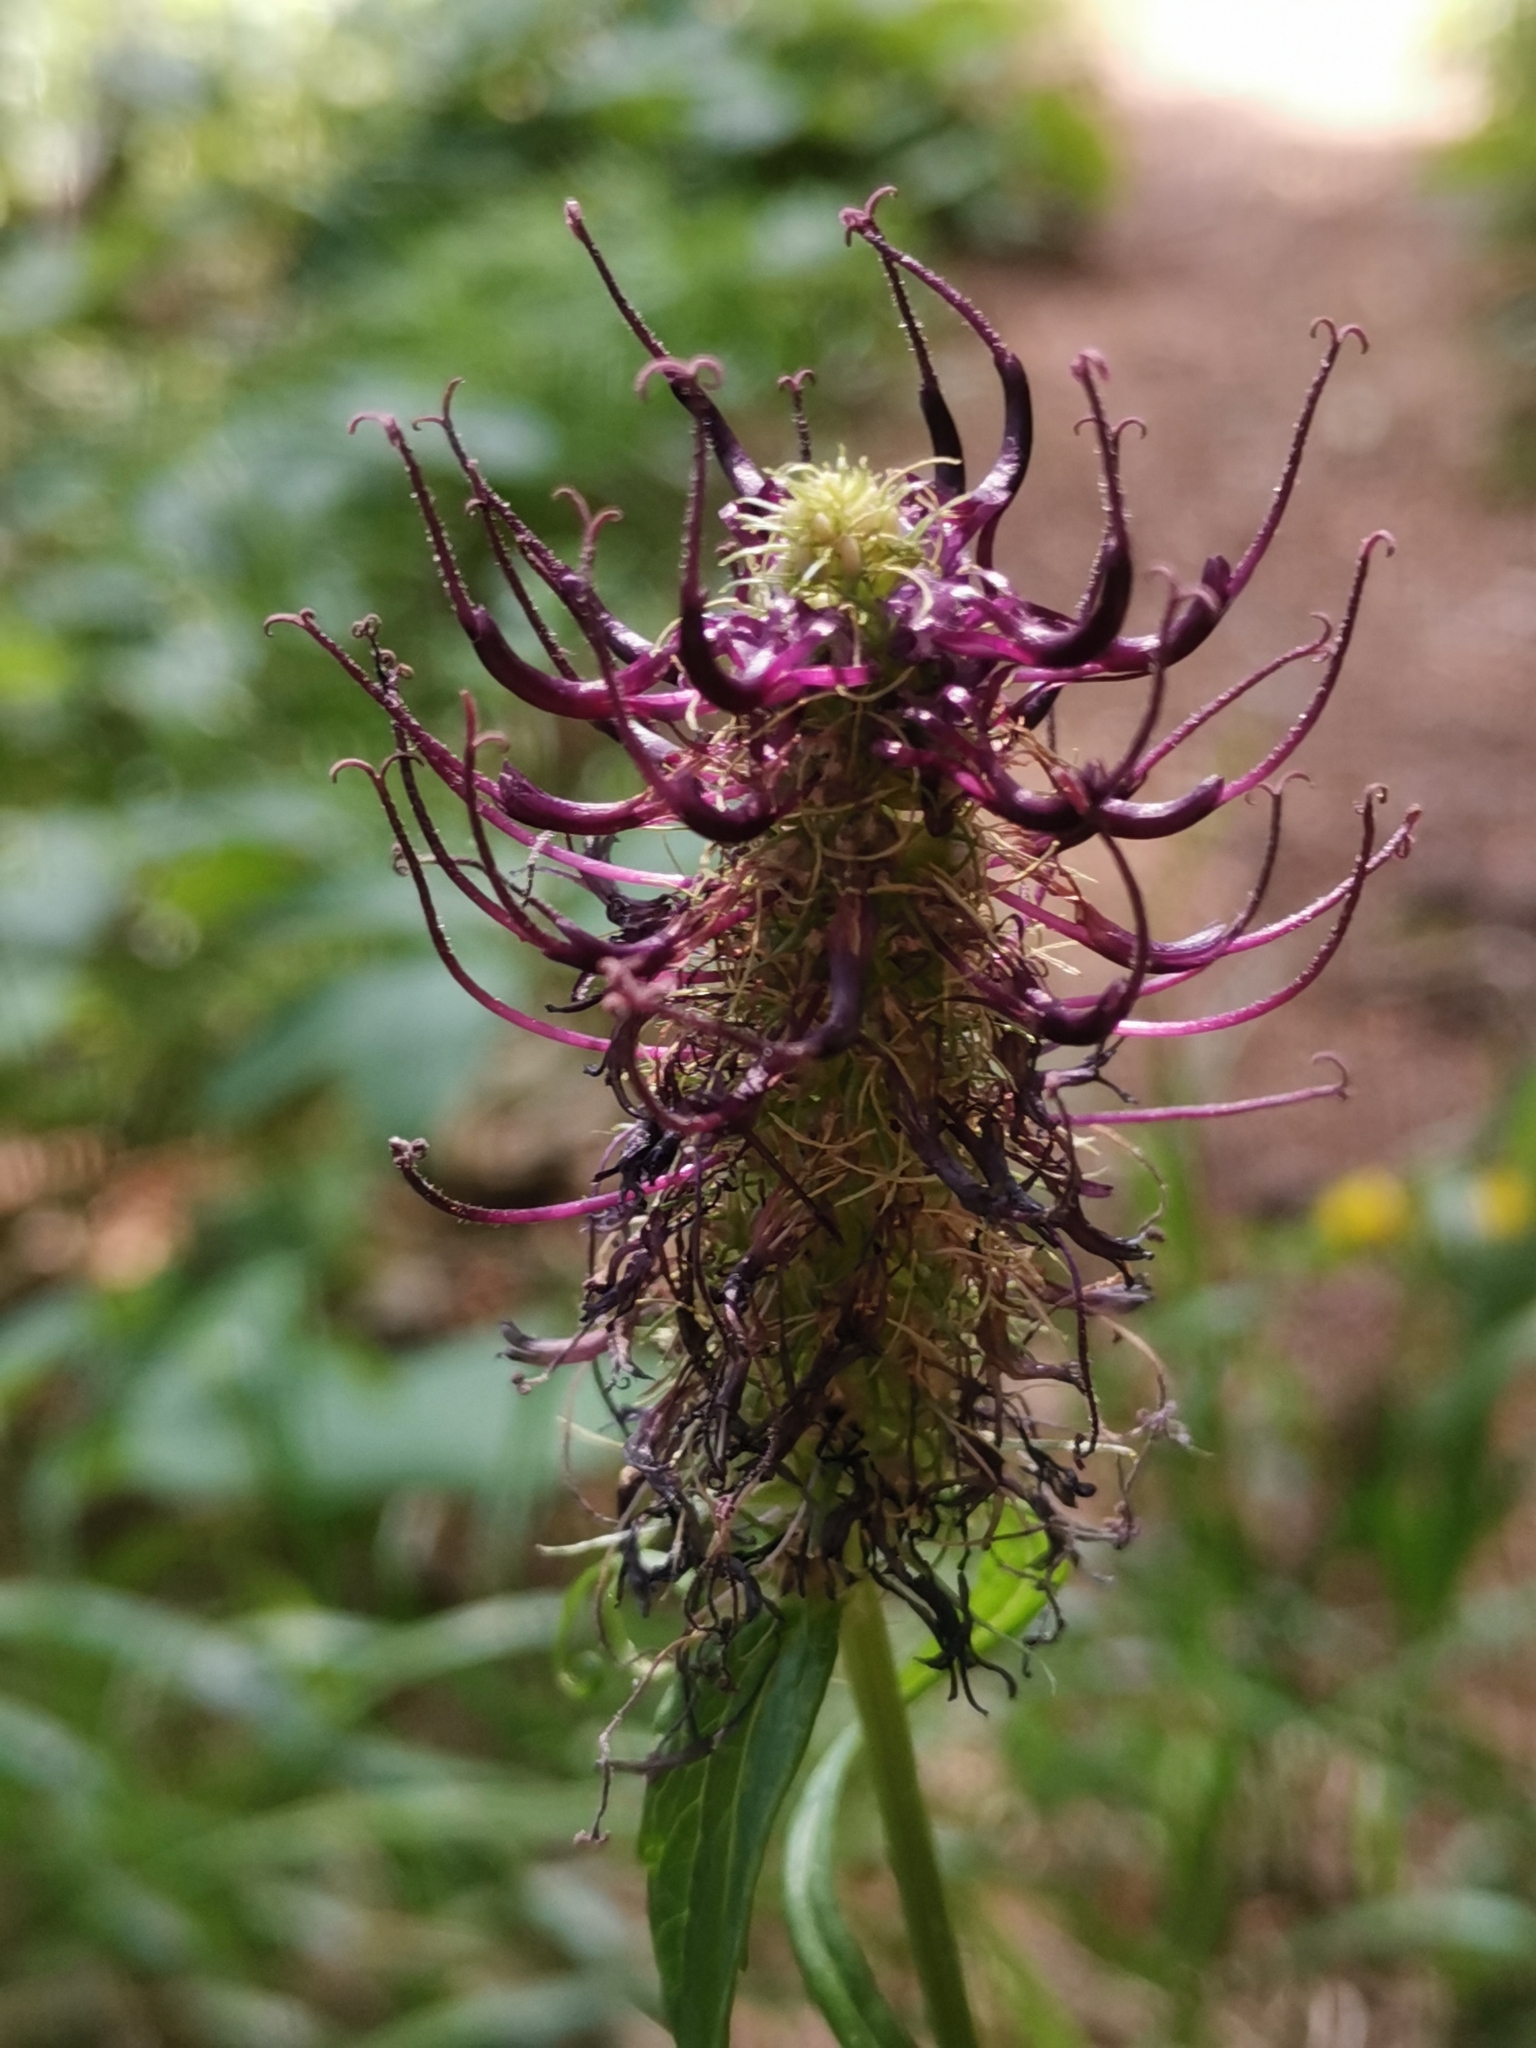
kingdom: Plantae
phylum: Tracheophyta
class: Magnoliopsida
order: Asterales
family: Campanulaceae
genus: Phyteuma
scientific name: Phyteuma ovatum
